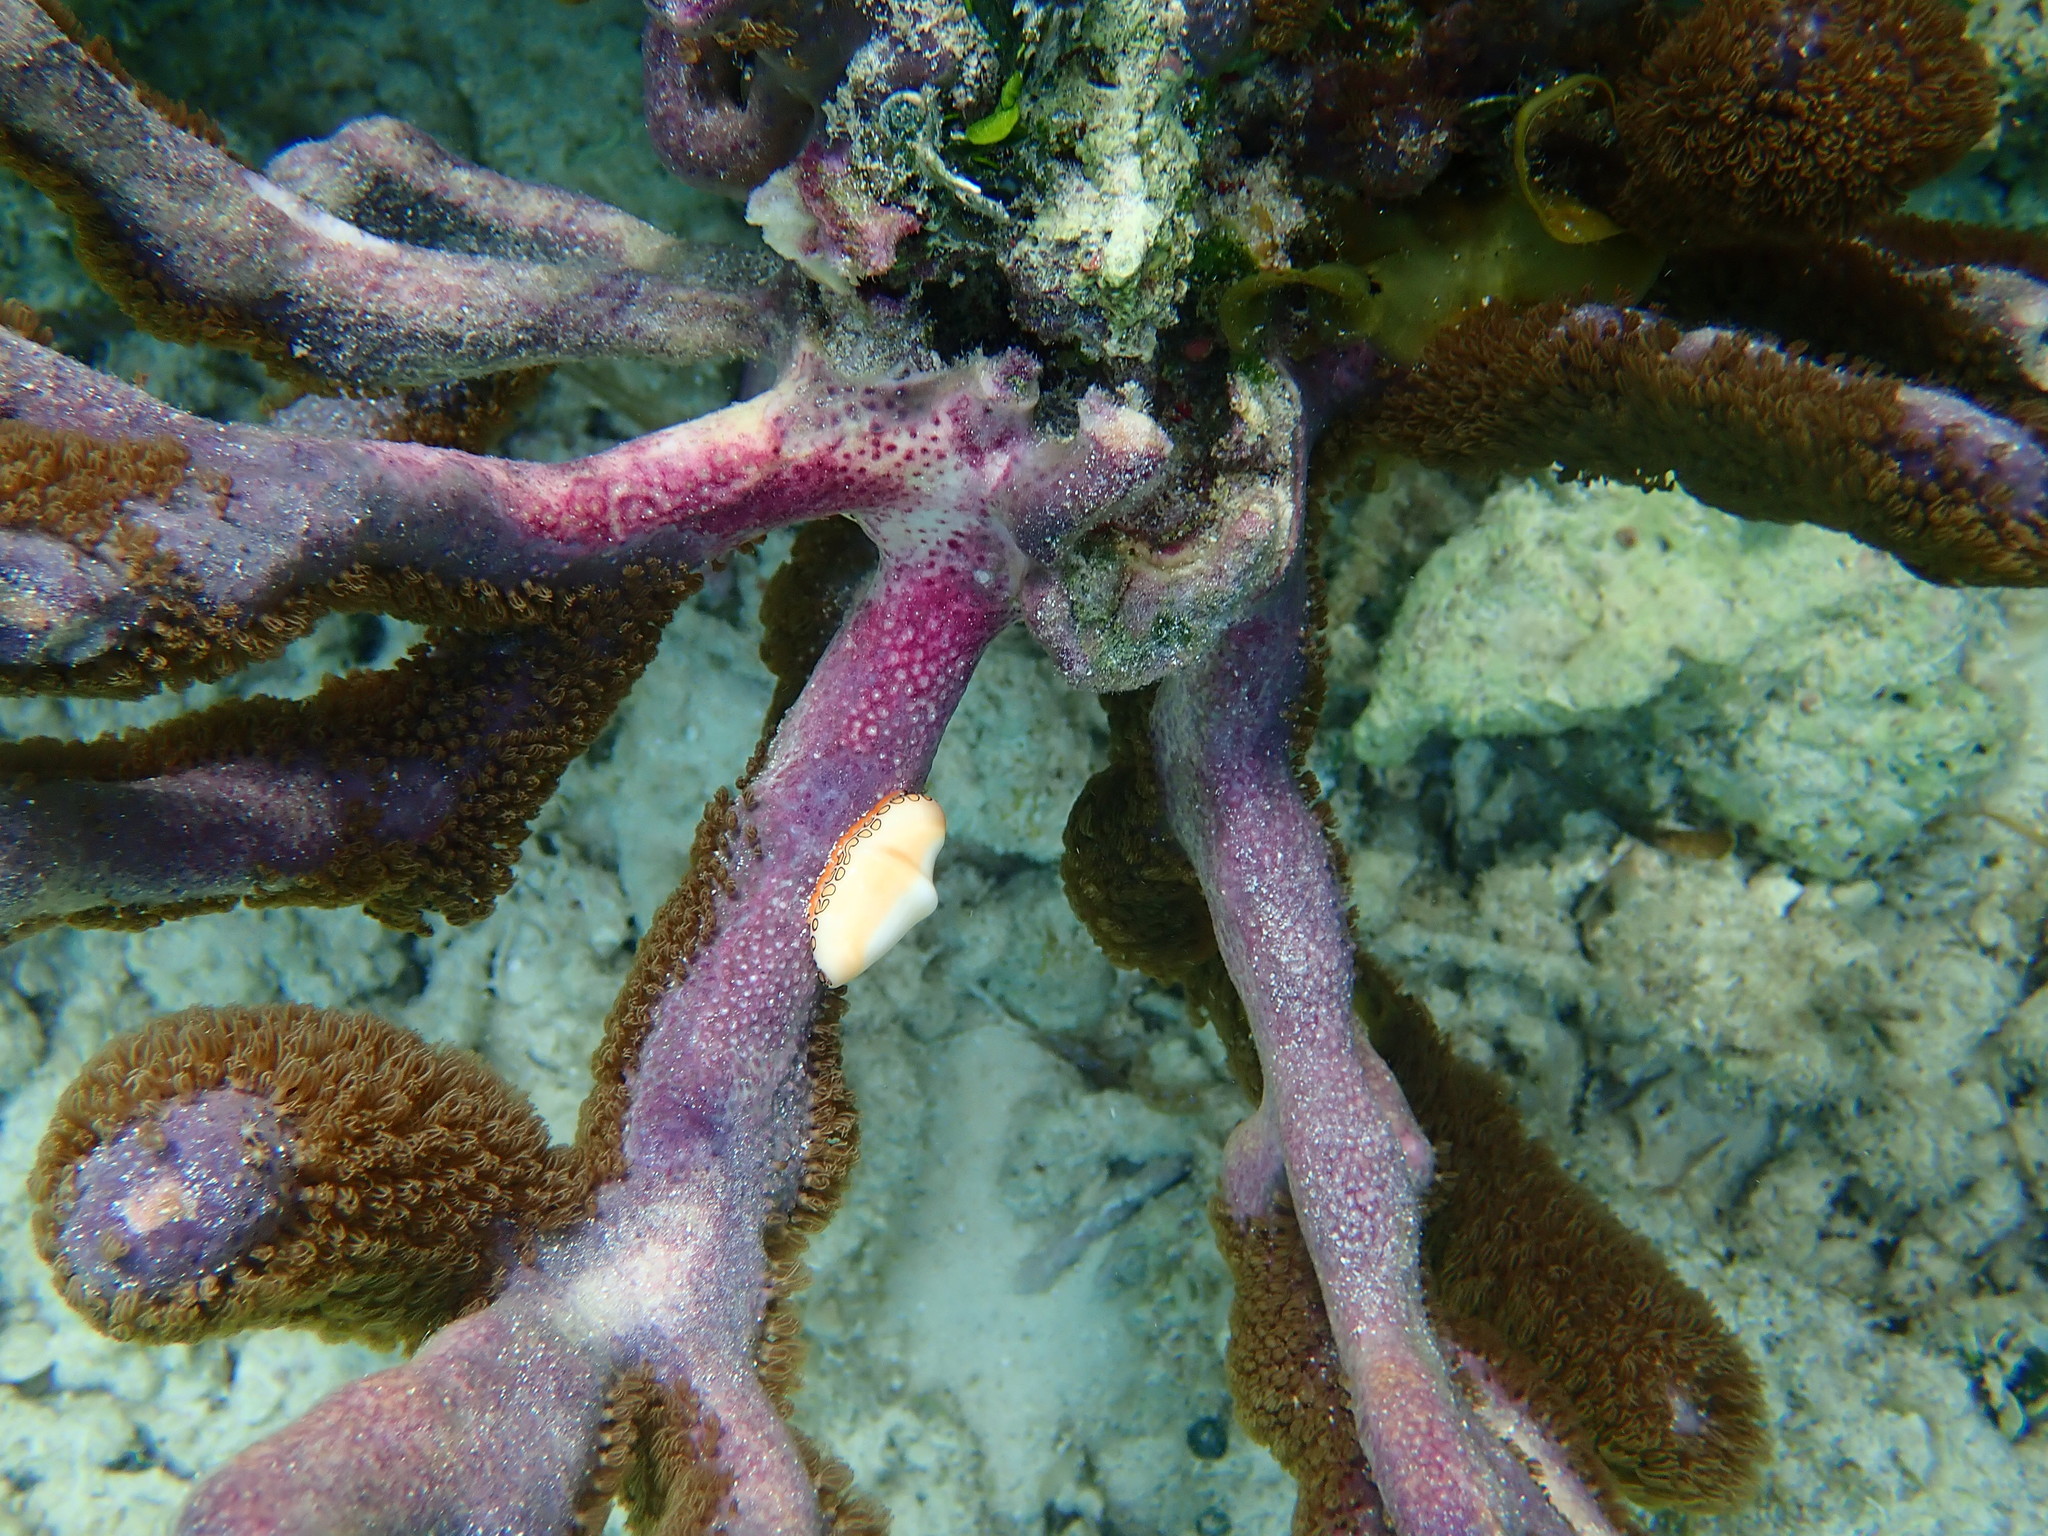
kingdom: Animalia
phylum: Cnidaria
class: Anthozoa
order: Scleralcyonacea
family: Briareidae
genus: Briareum
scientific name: Briareum asbestinum
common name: Corky sea finger
